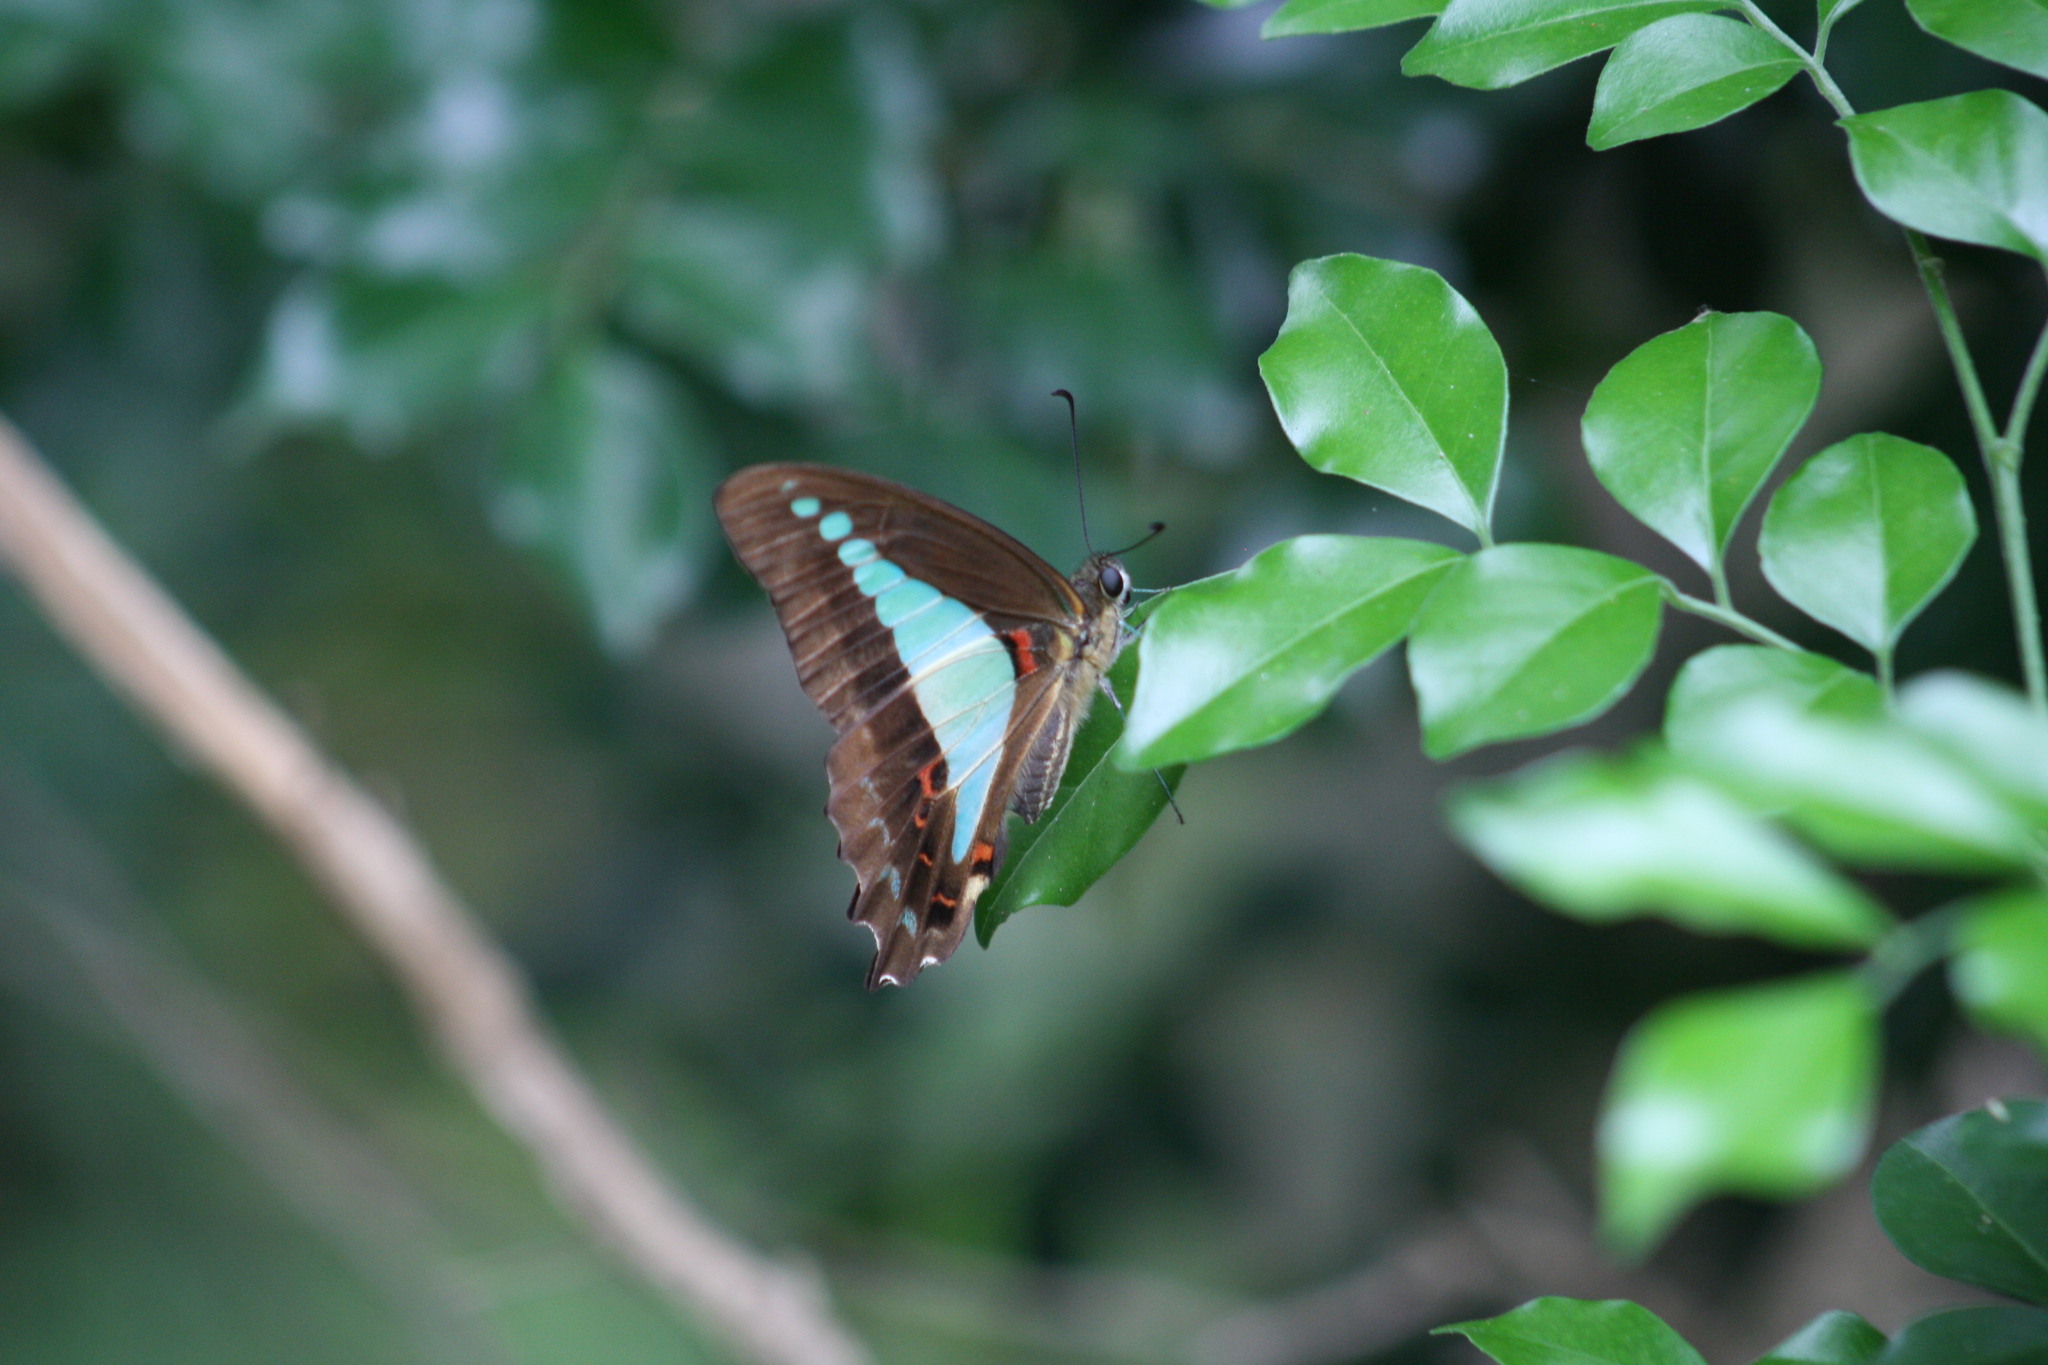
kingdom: Animalia
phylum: Arthropoda
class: Insecta
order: Lepidoptera
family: Papilionidae
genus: Graphium
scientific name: Graphium
